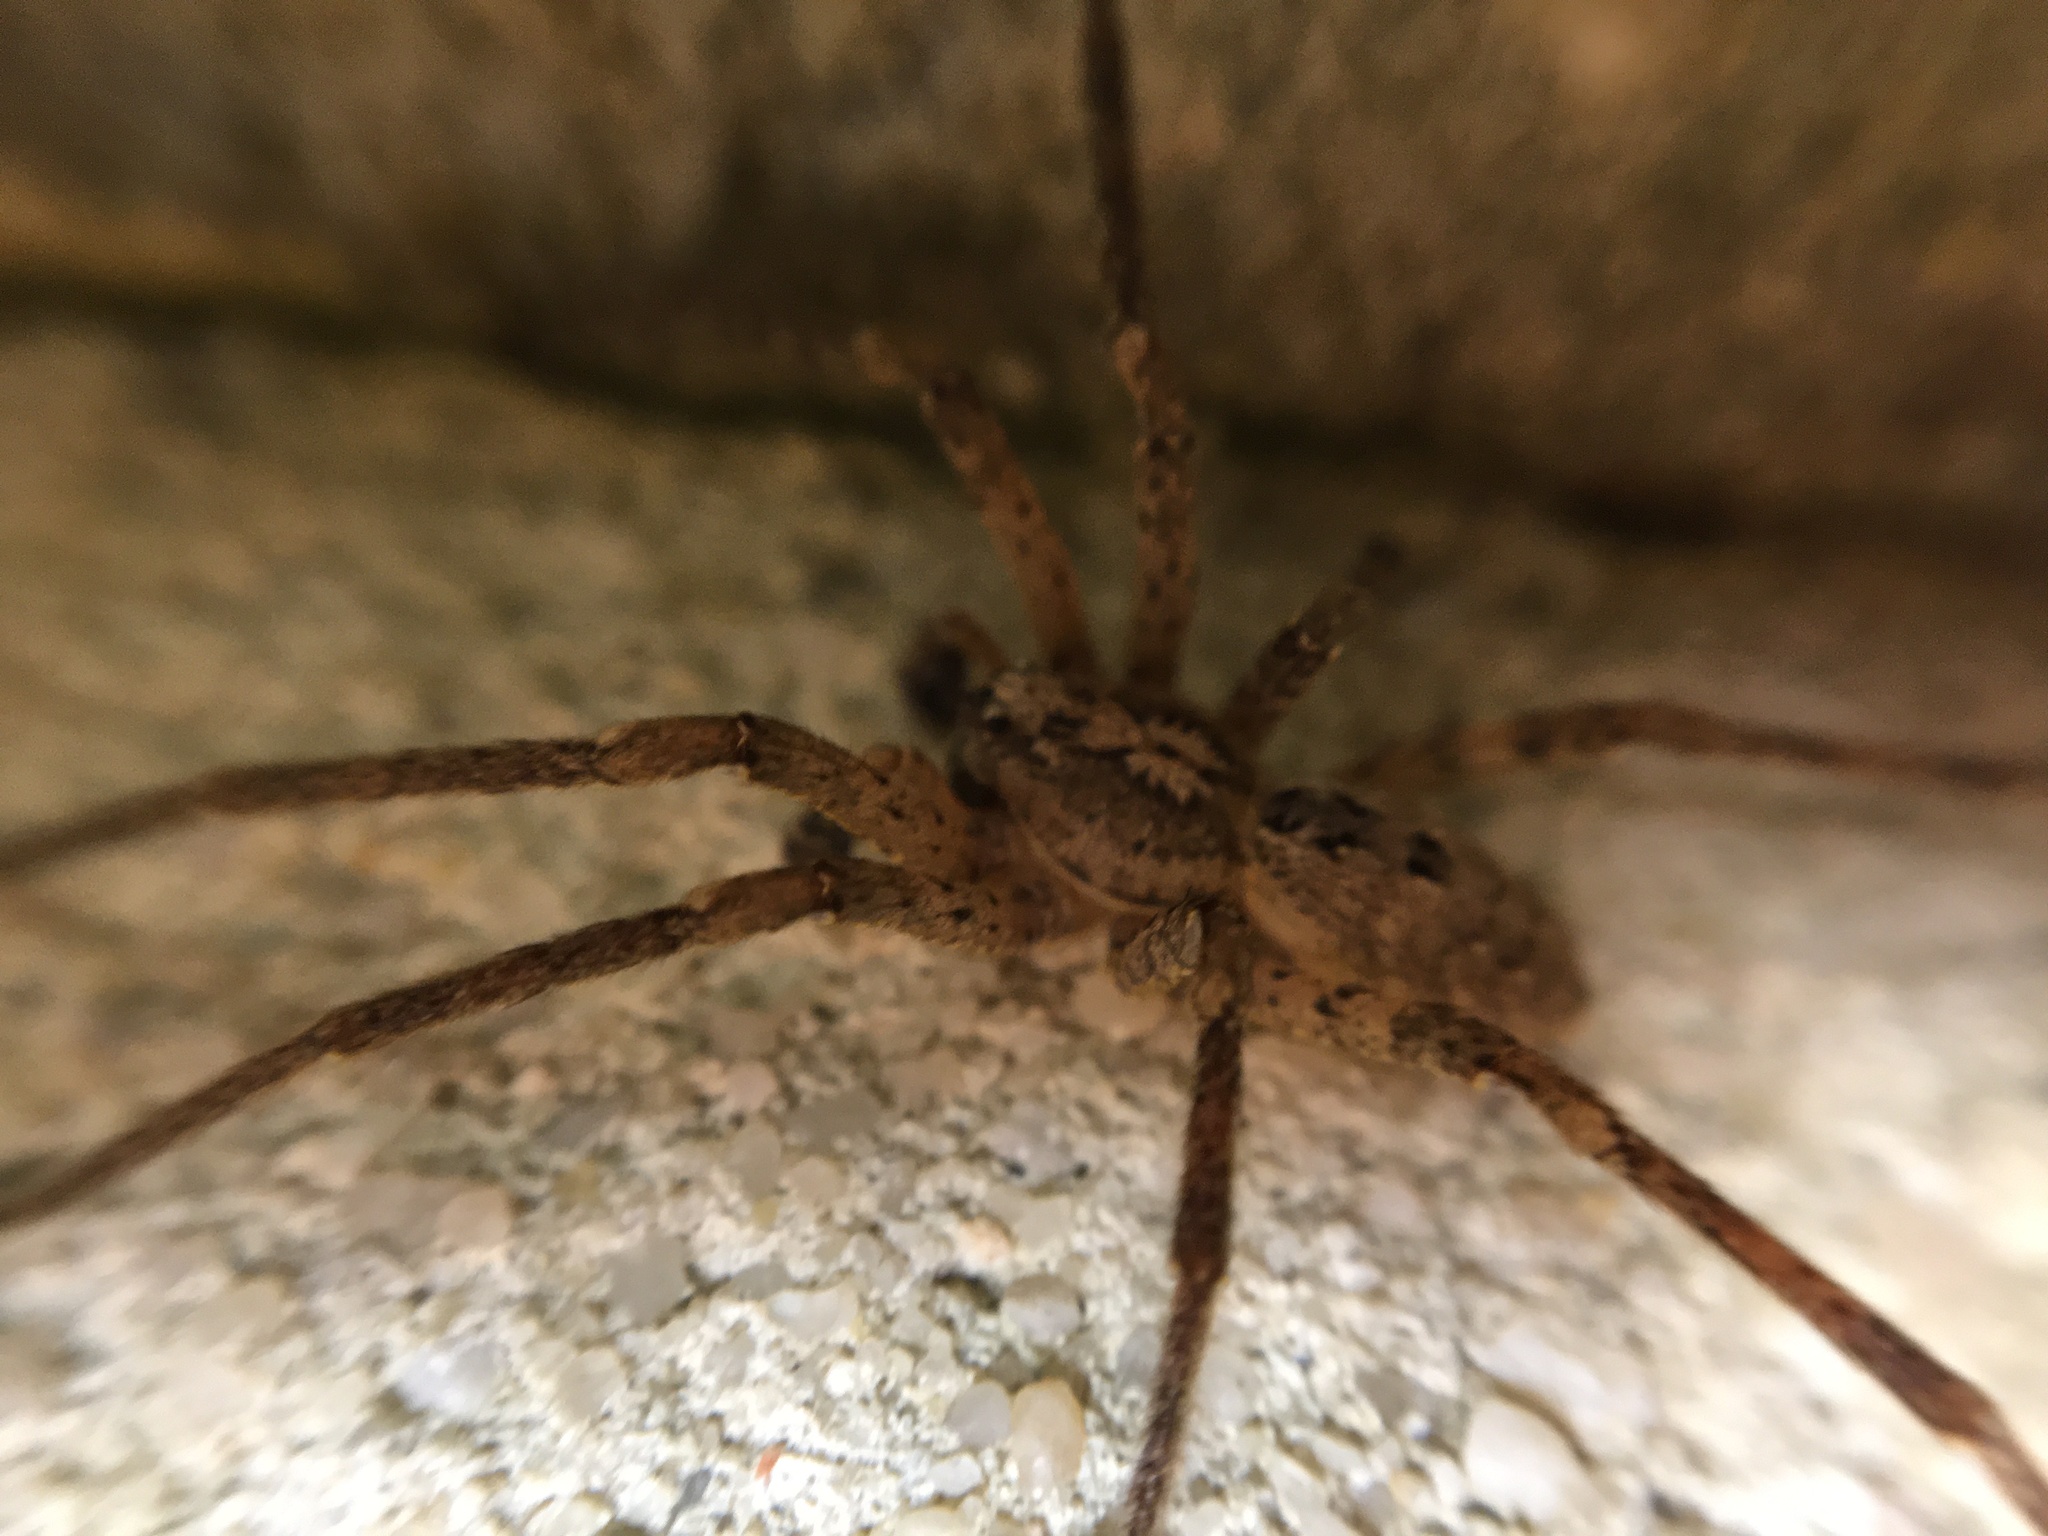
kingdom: Animalia
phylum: Arthropoda
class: Arachnida
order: Araneae
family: Zoropsidae
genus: Zoropsis
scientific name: Zoropsis spinimana
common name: Zoropsid spider
